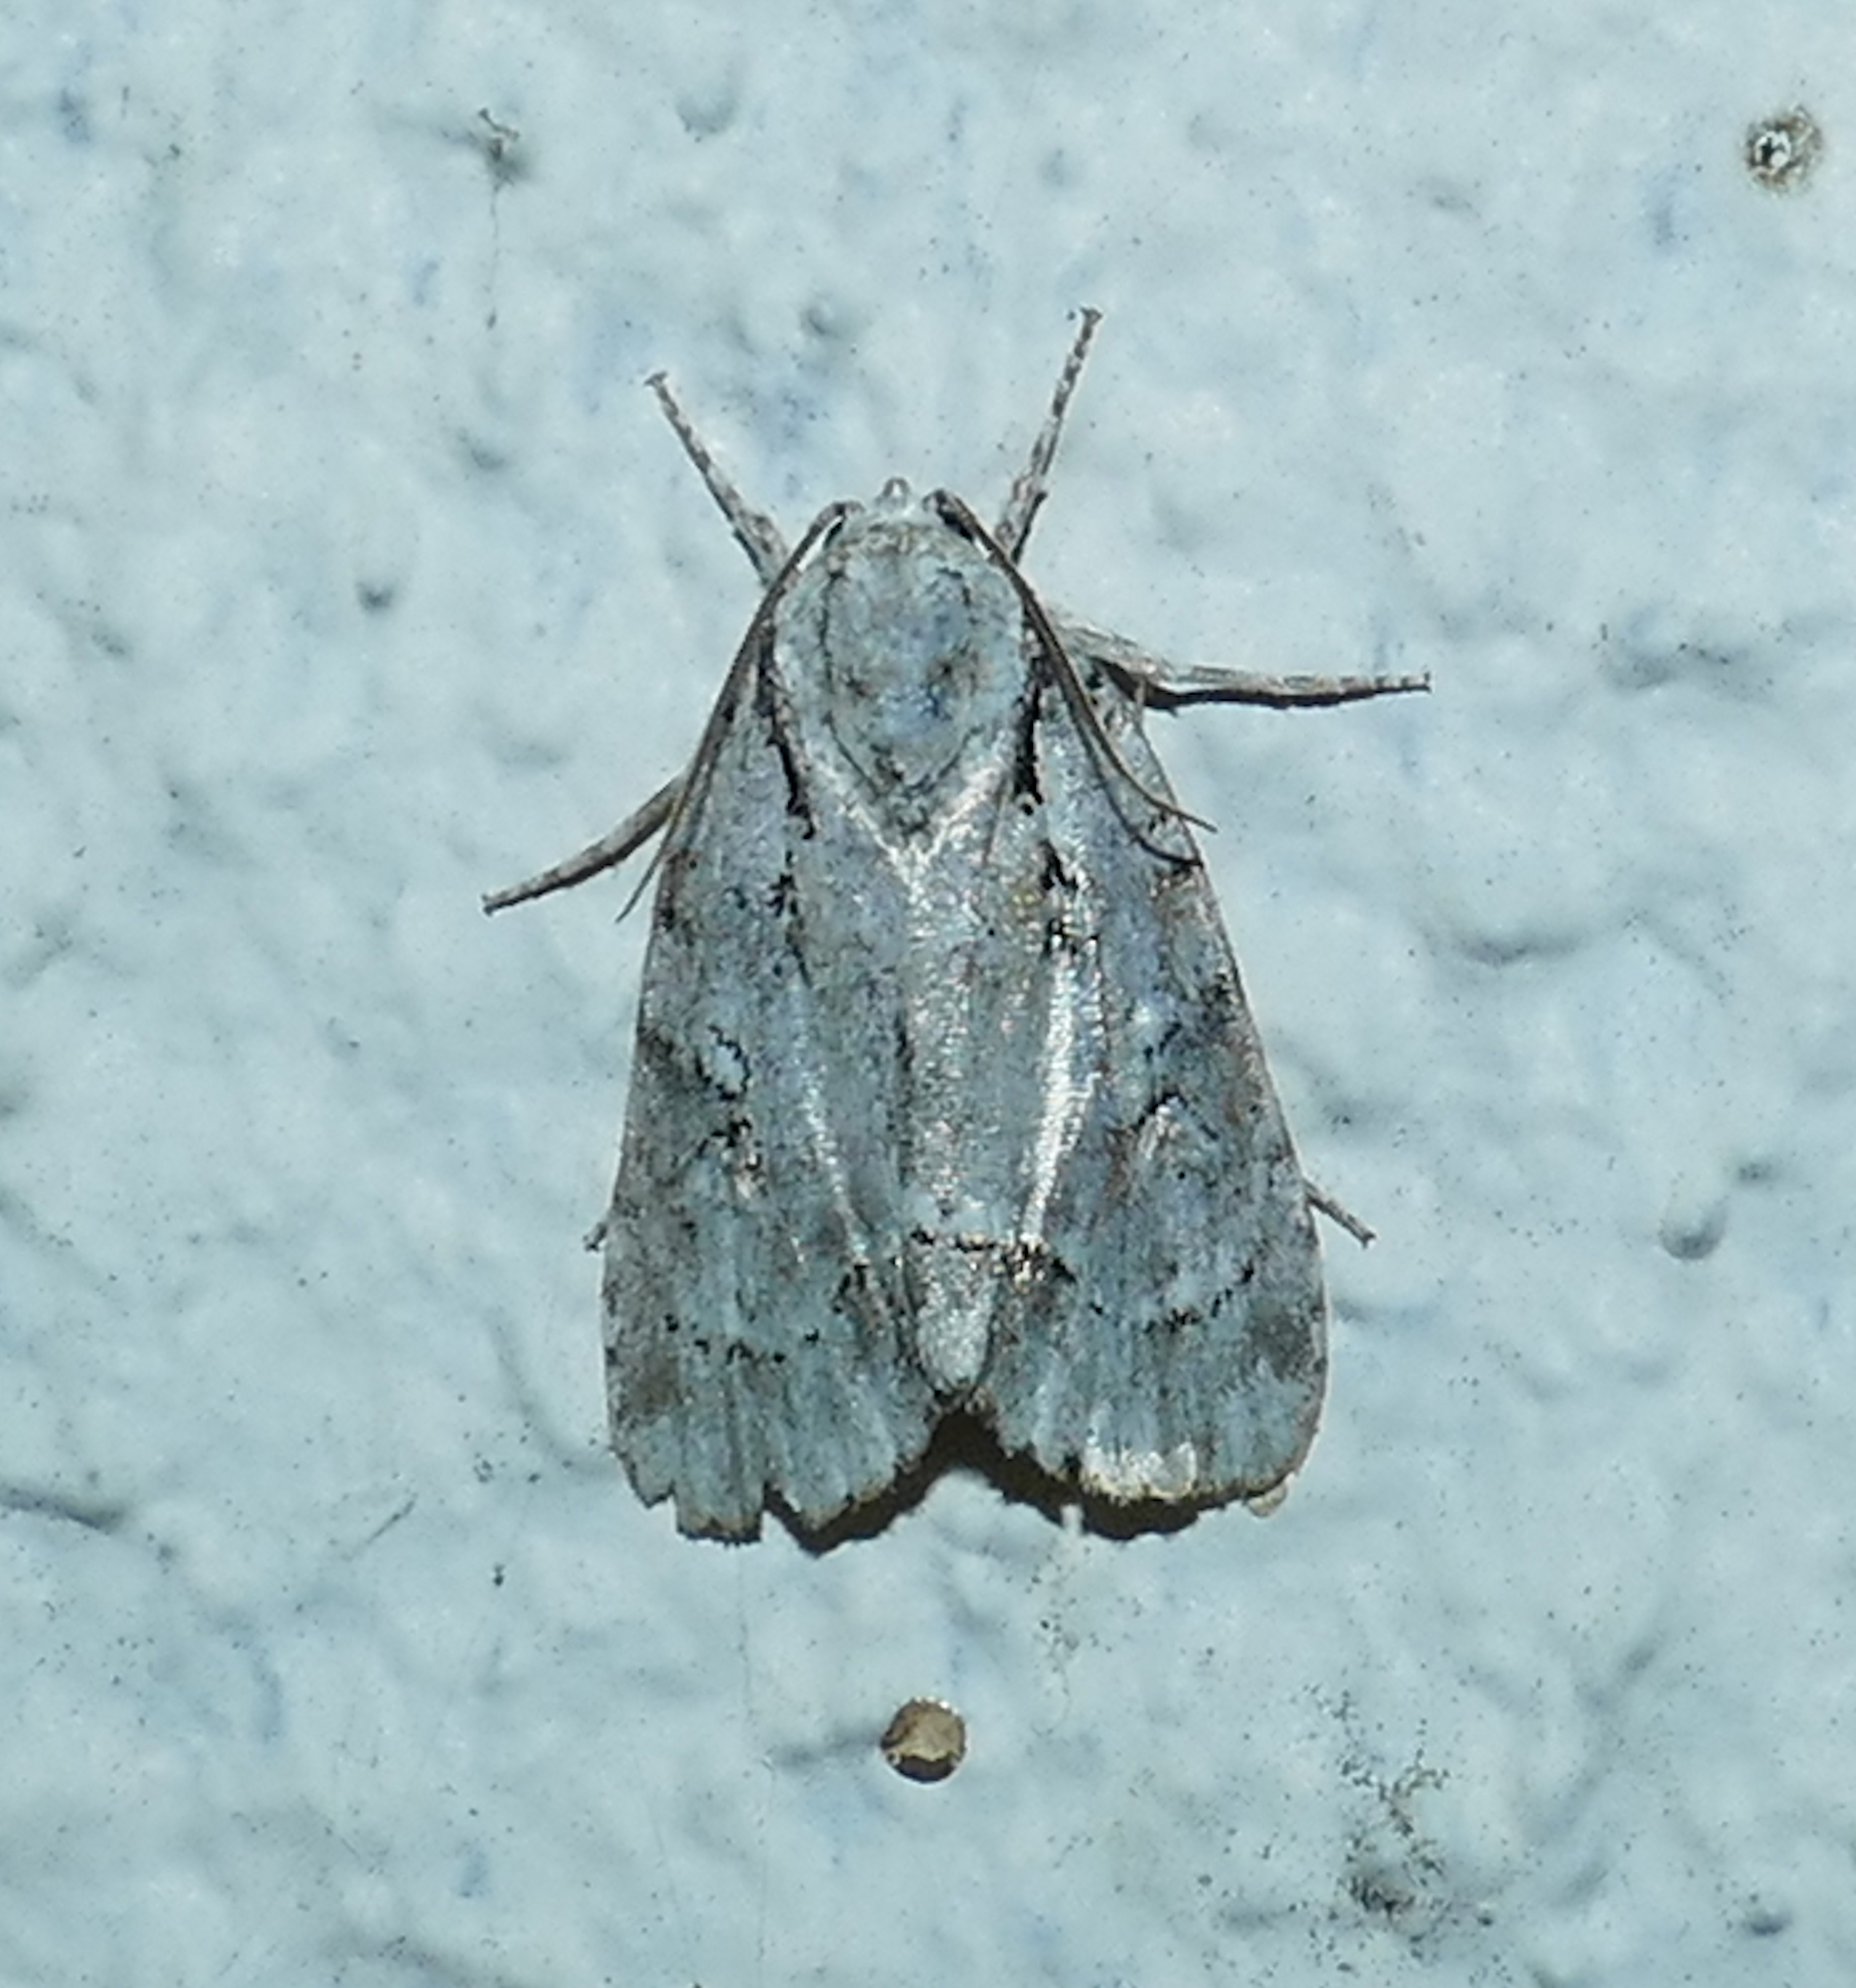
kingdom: Animalia
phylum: Arthropoda
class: Insecta
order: Lepidoptera
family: Noctuidae
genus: Acronicta
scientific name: Acronicta vinnula
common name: Delightful dagger
